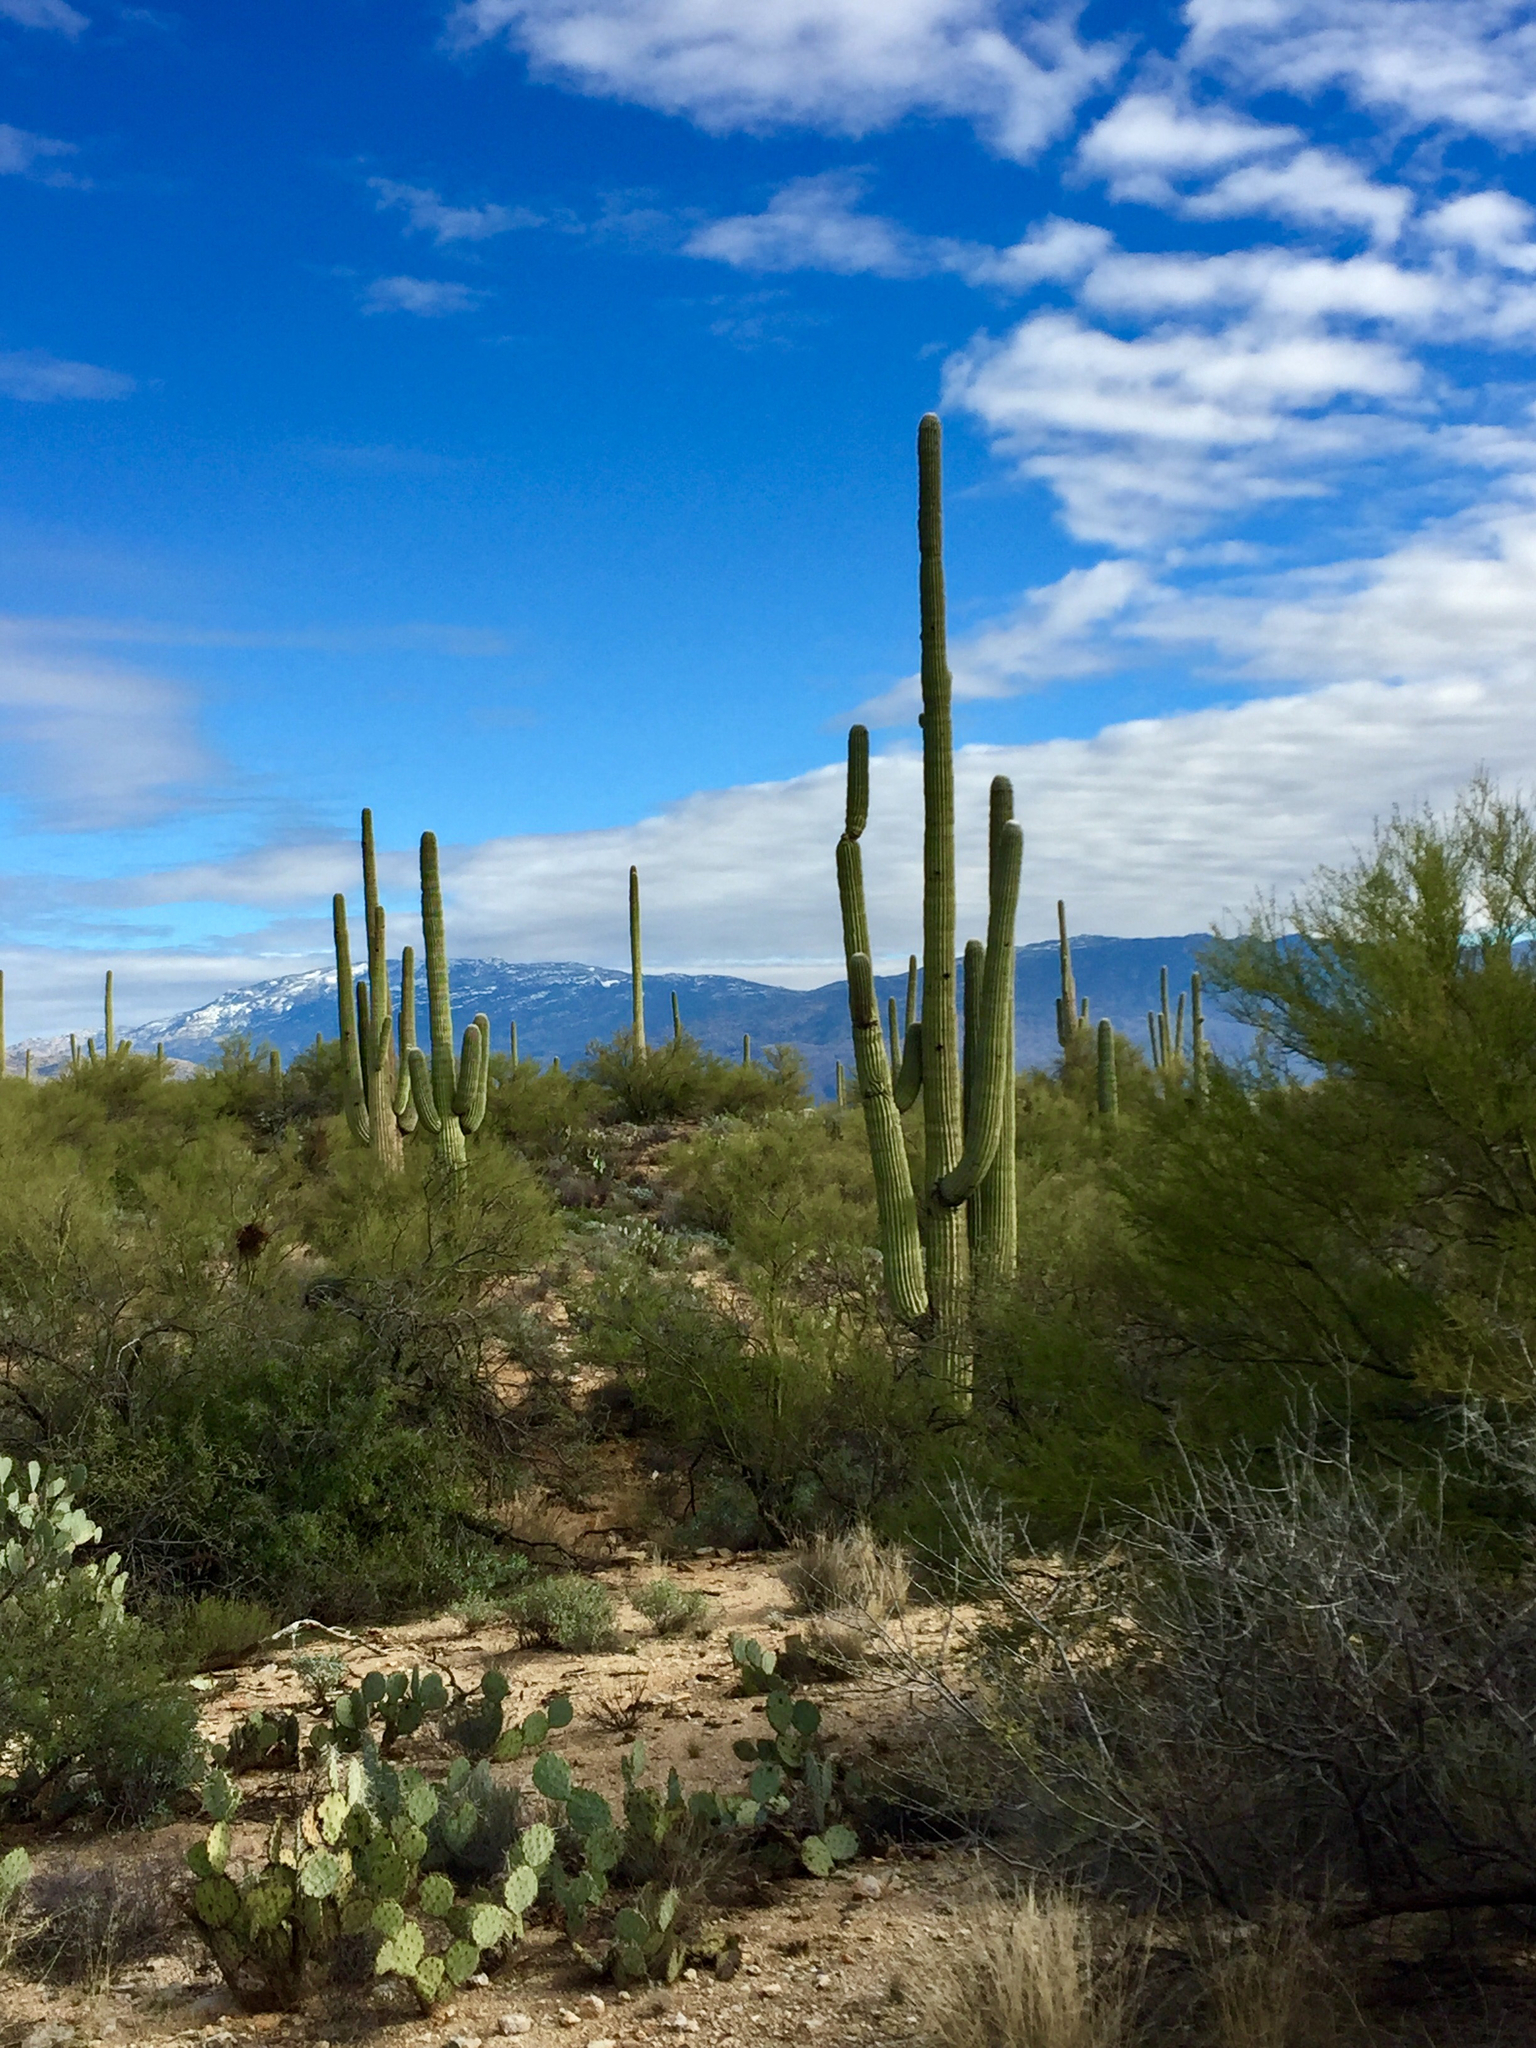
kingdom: Plantae
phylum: Tracheophyta
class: Magnoliopsida
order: Caryophyllales
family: Cactaceae
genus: Carnegiea
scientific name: Carnegiea gigantea
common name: Saguaro
